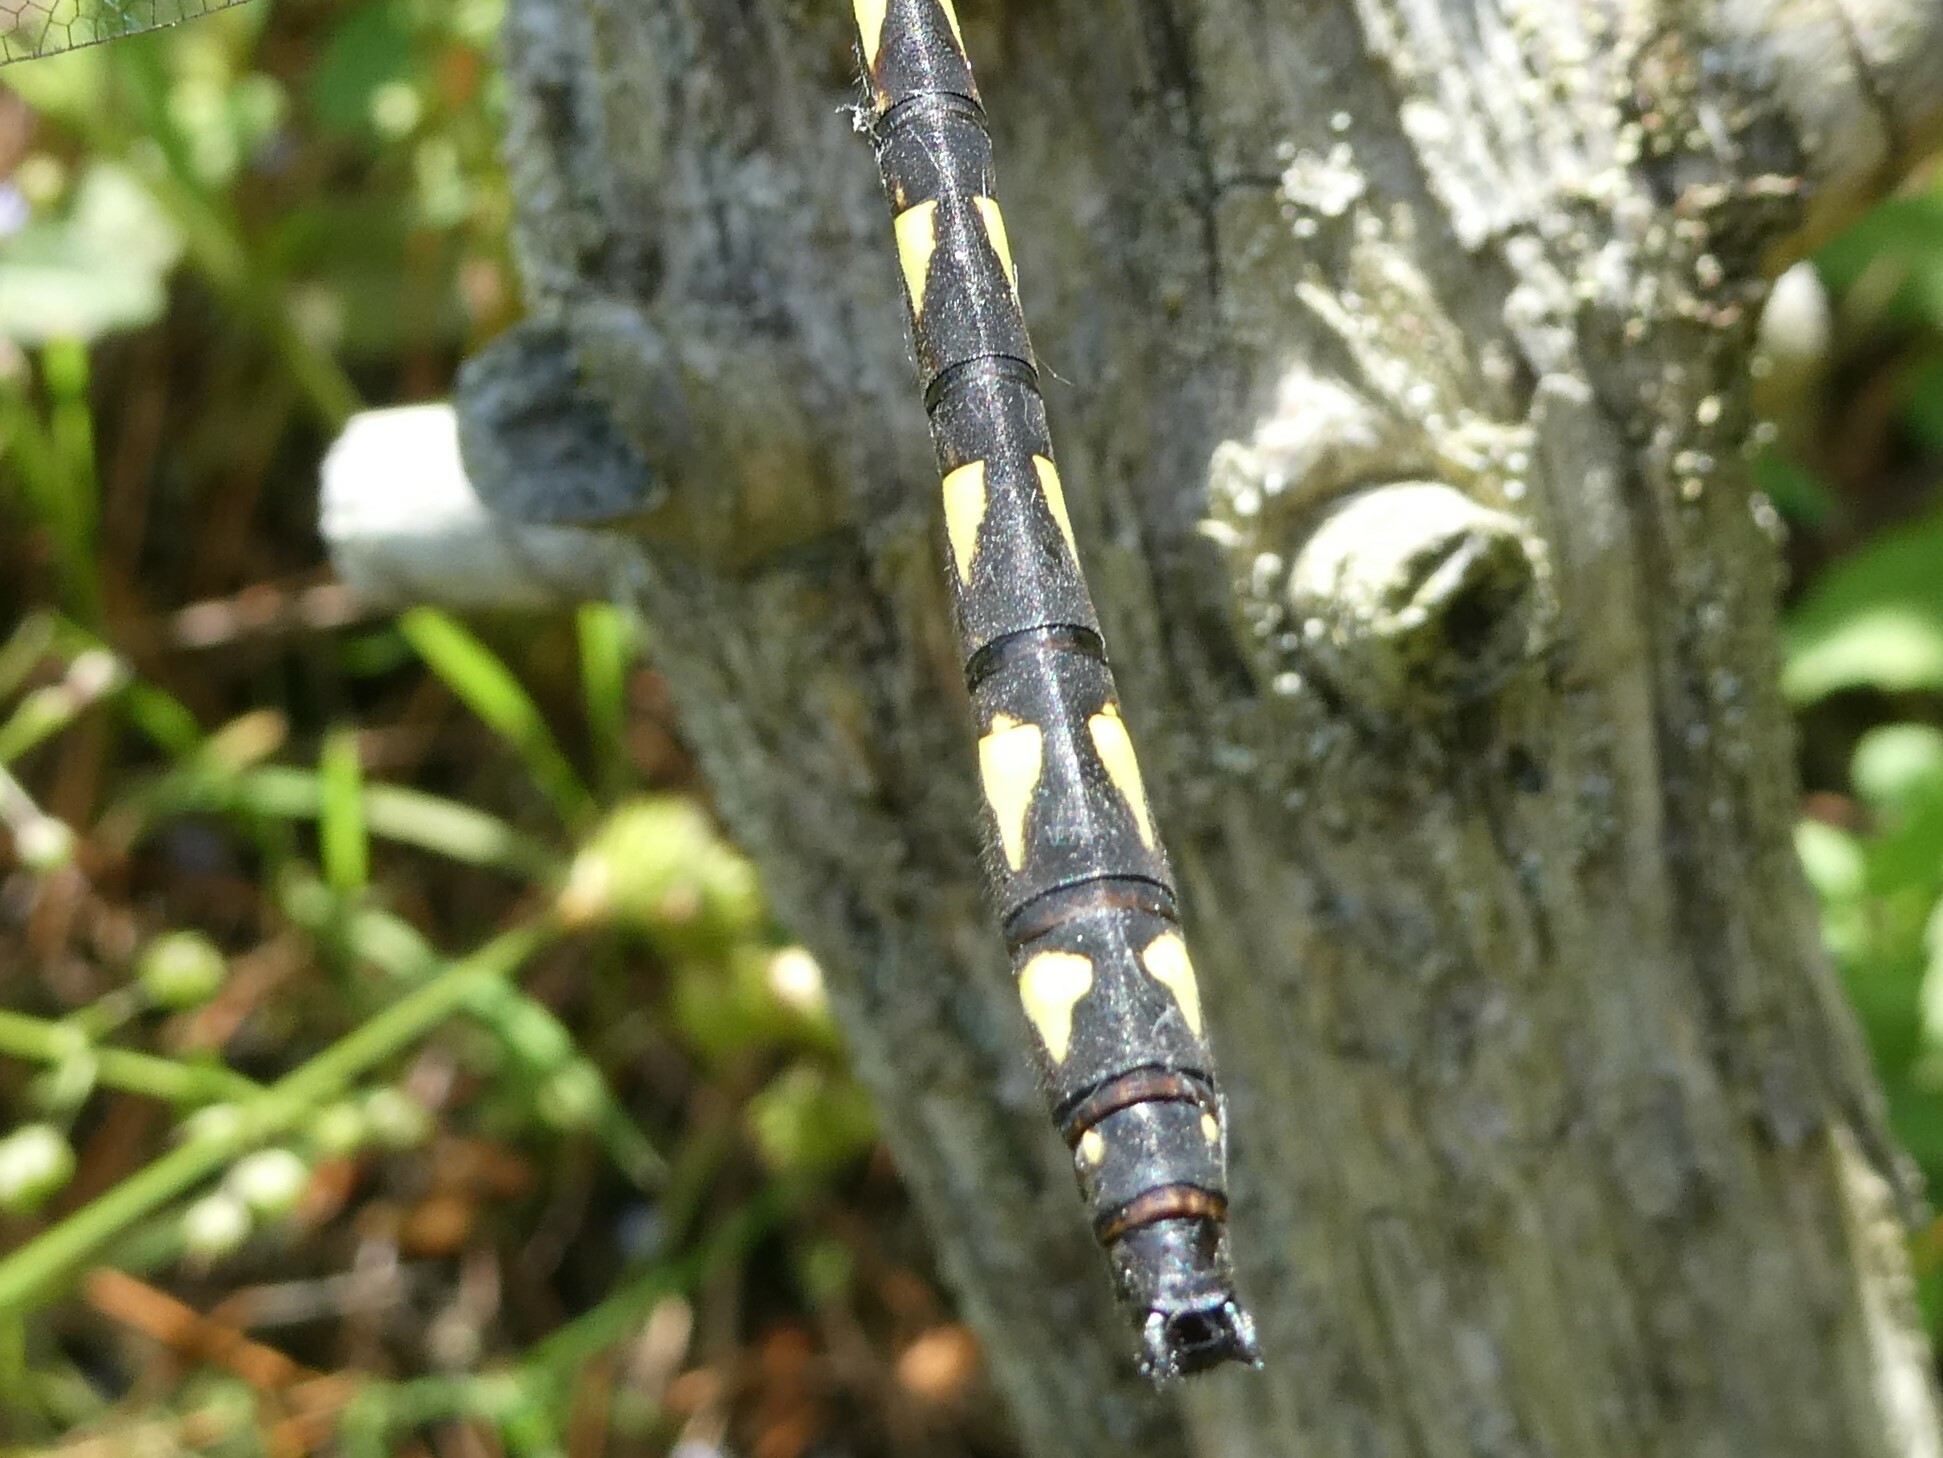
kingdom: Animalia
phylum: Arthropoda
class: Insecta
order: Odonata
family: Cordulegastridae
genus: Cordulegaster
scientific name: Cordulegaster diastatops
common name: Delta-spotted spiketail
